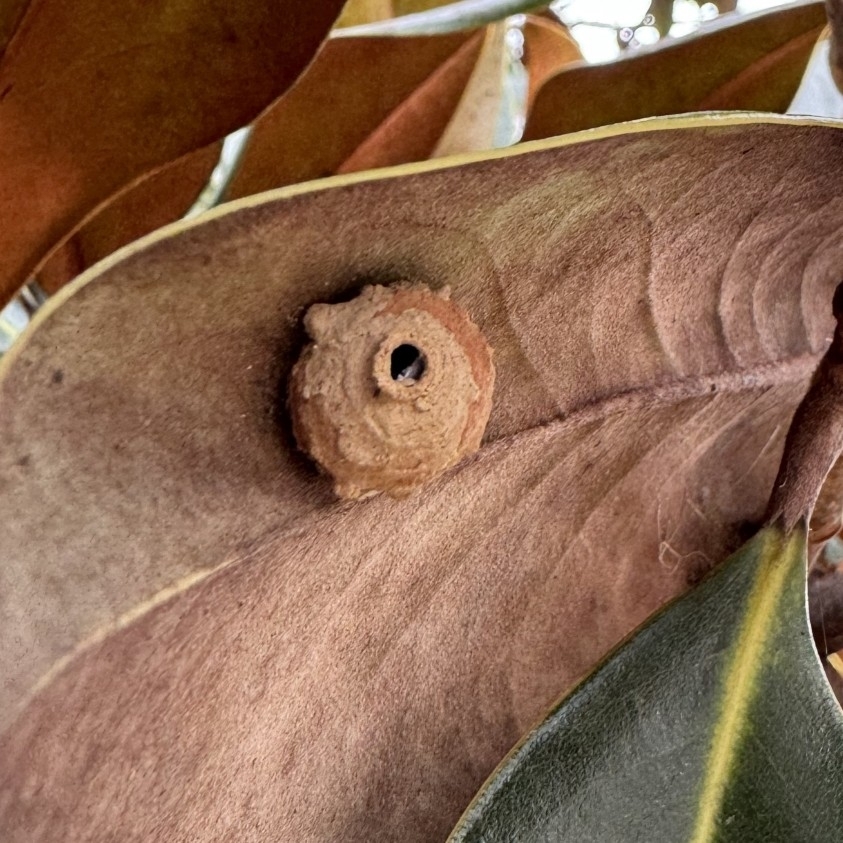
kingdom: Animalia
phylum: Arthropoda
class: Insecta
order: Hymenoptera
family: Eumenidae
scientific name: Eumenidae
